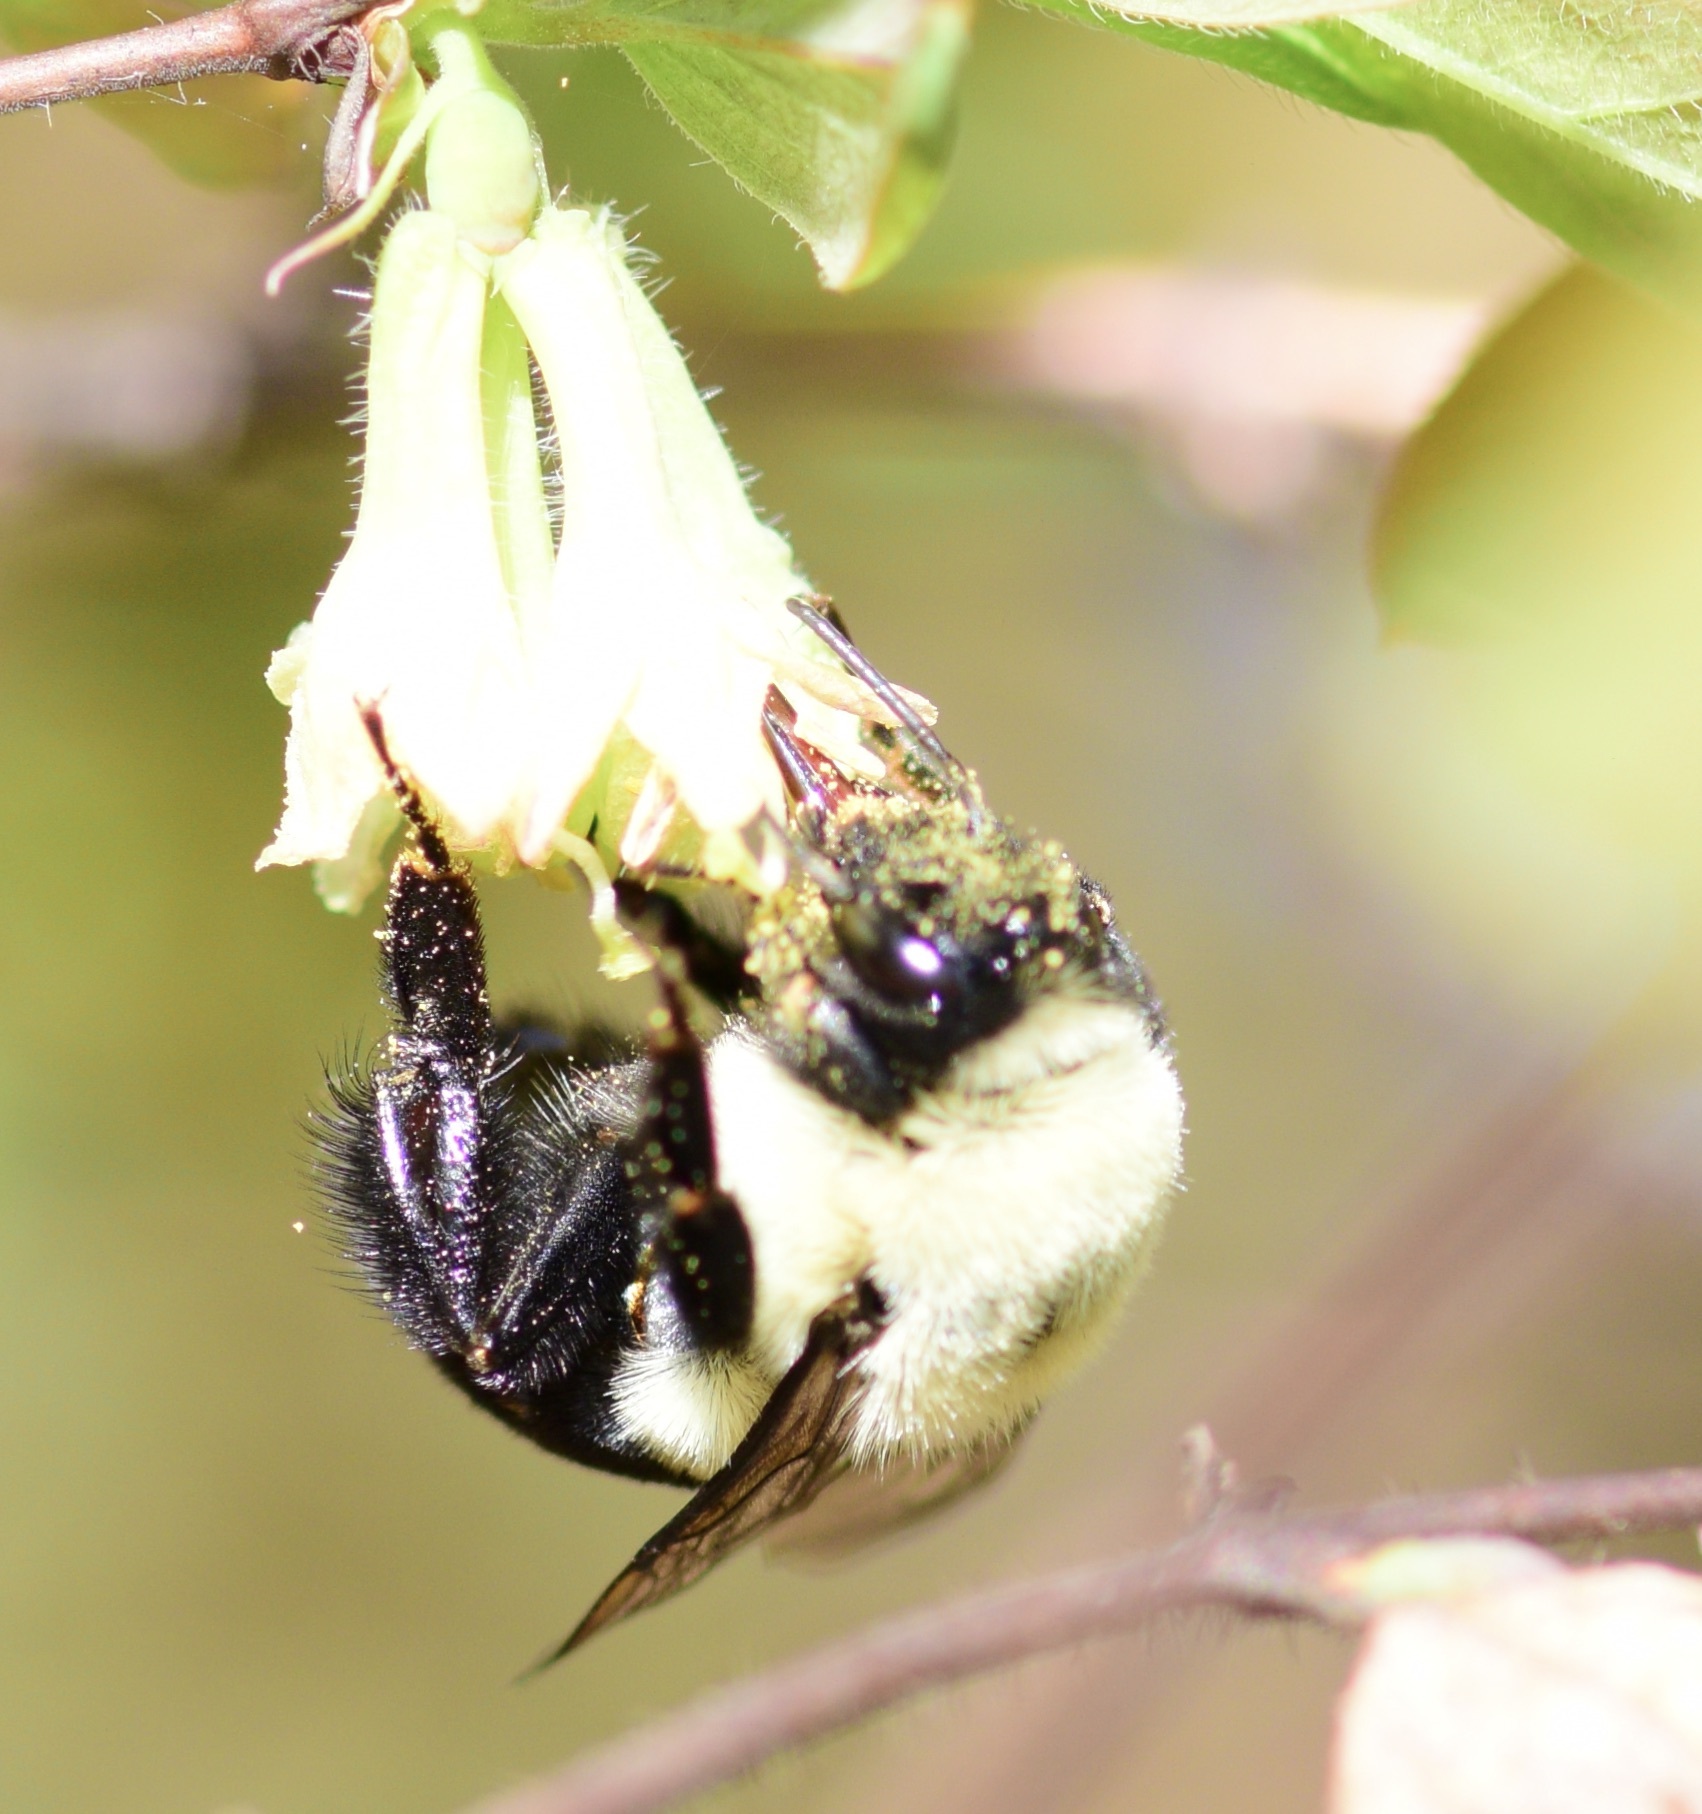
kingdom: Animalia
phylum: Arthropoda
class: Insecta
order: Hymenoptera
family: Apidae
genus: Bombus
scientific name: Bombus impatiens
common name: Common eastern bumble bee
